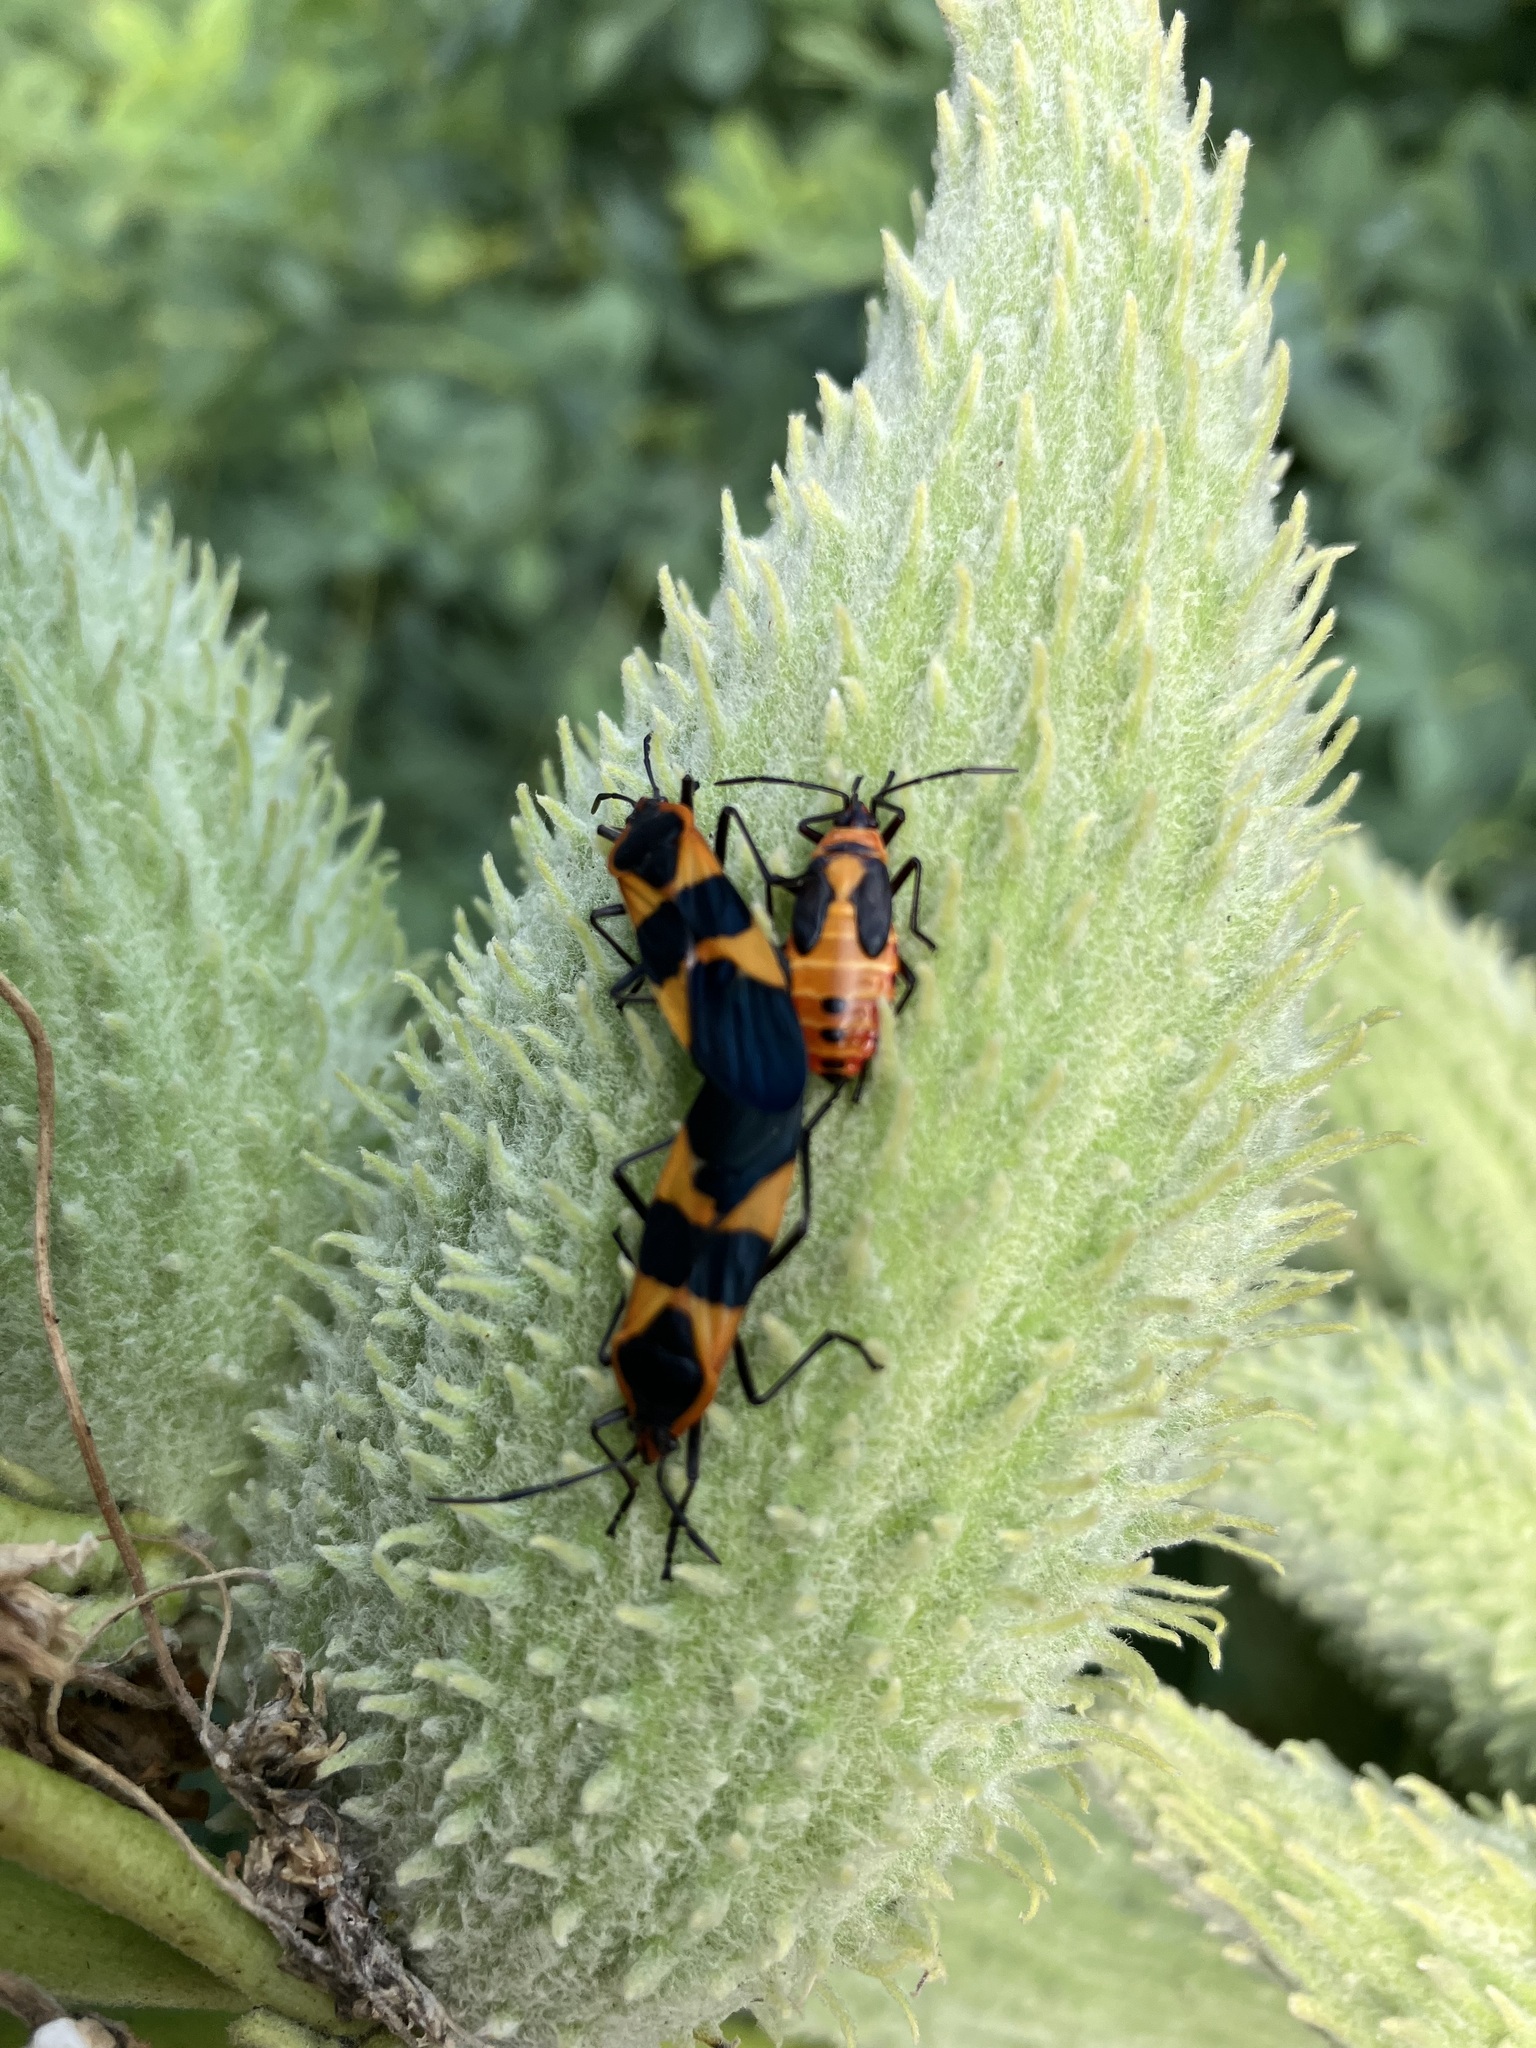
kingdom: Animalia
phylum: Arthropoda
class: Insecta
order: Hemiptera
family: Lygaeidae
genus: Oncopeltus
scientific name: Oncopeltus fasciatus
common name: Large milkweed bug
